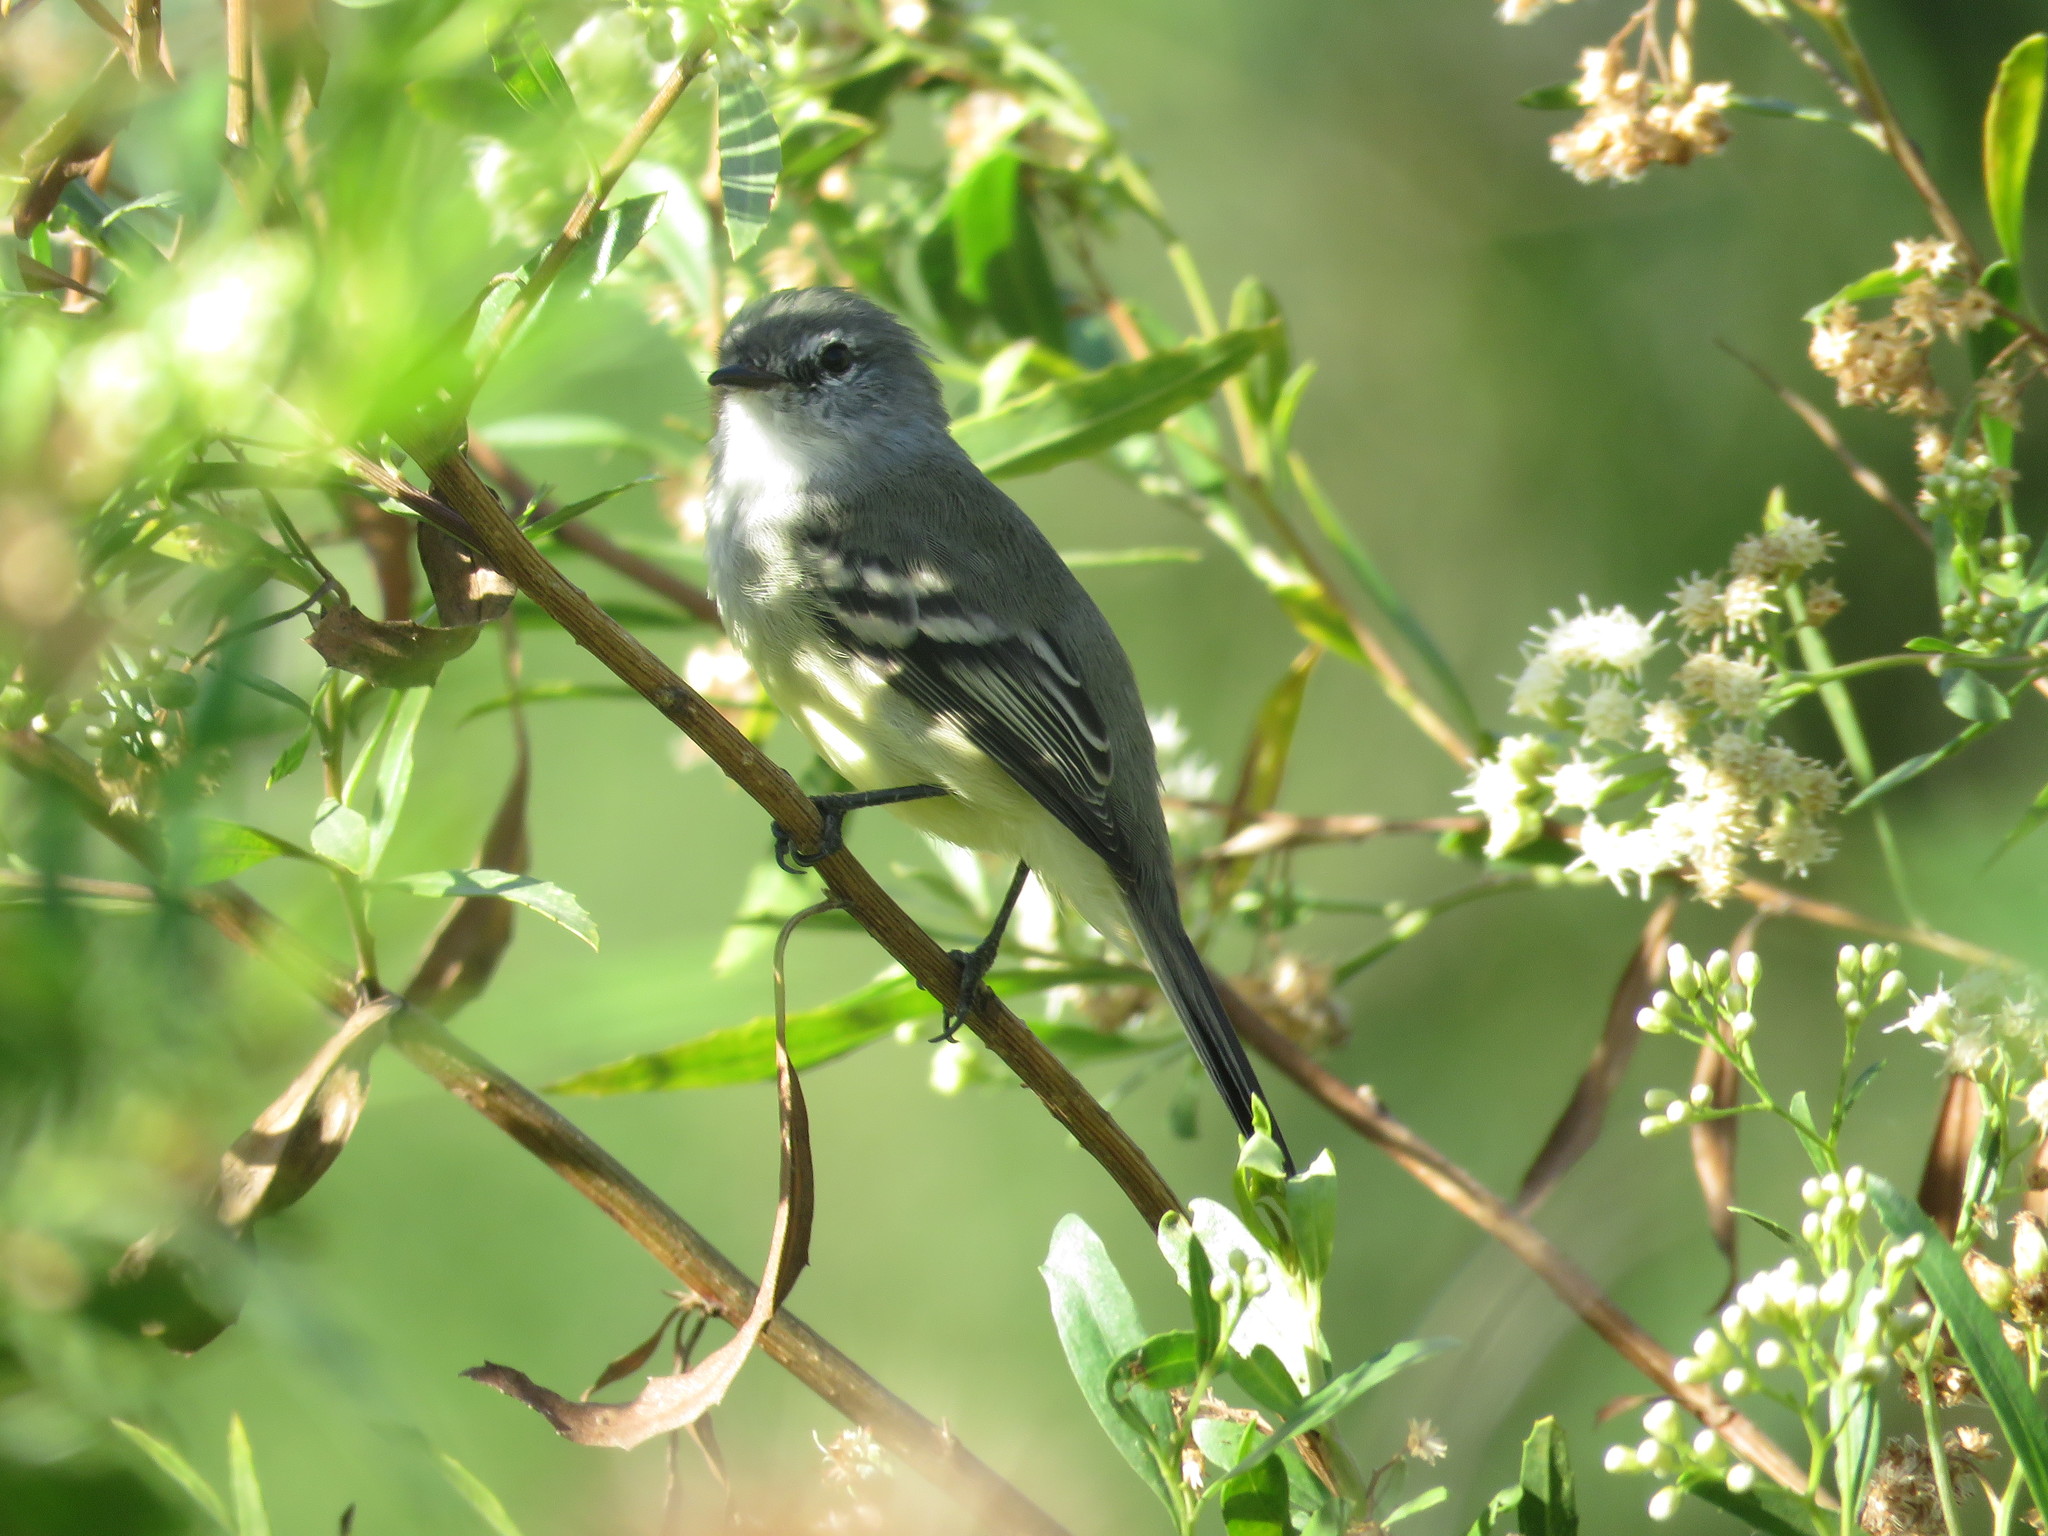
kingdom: Animalia
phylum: Chordata
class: Aves
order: Passeriformes
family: Tyrannidae
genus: Serpophaga
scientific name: Serpophaga subcristata
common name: White-crested tyrannulet
